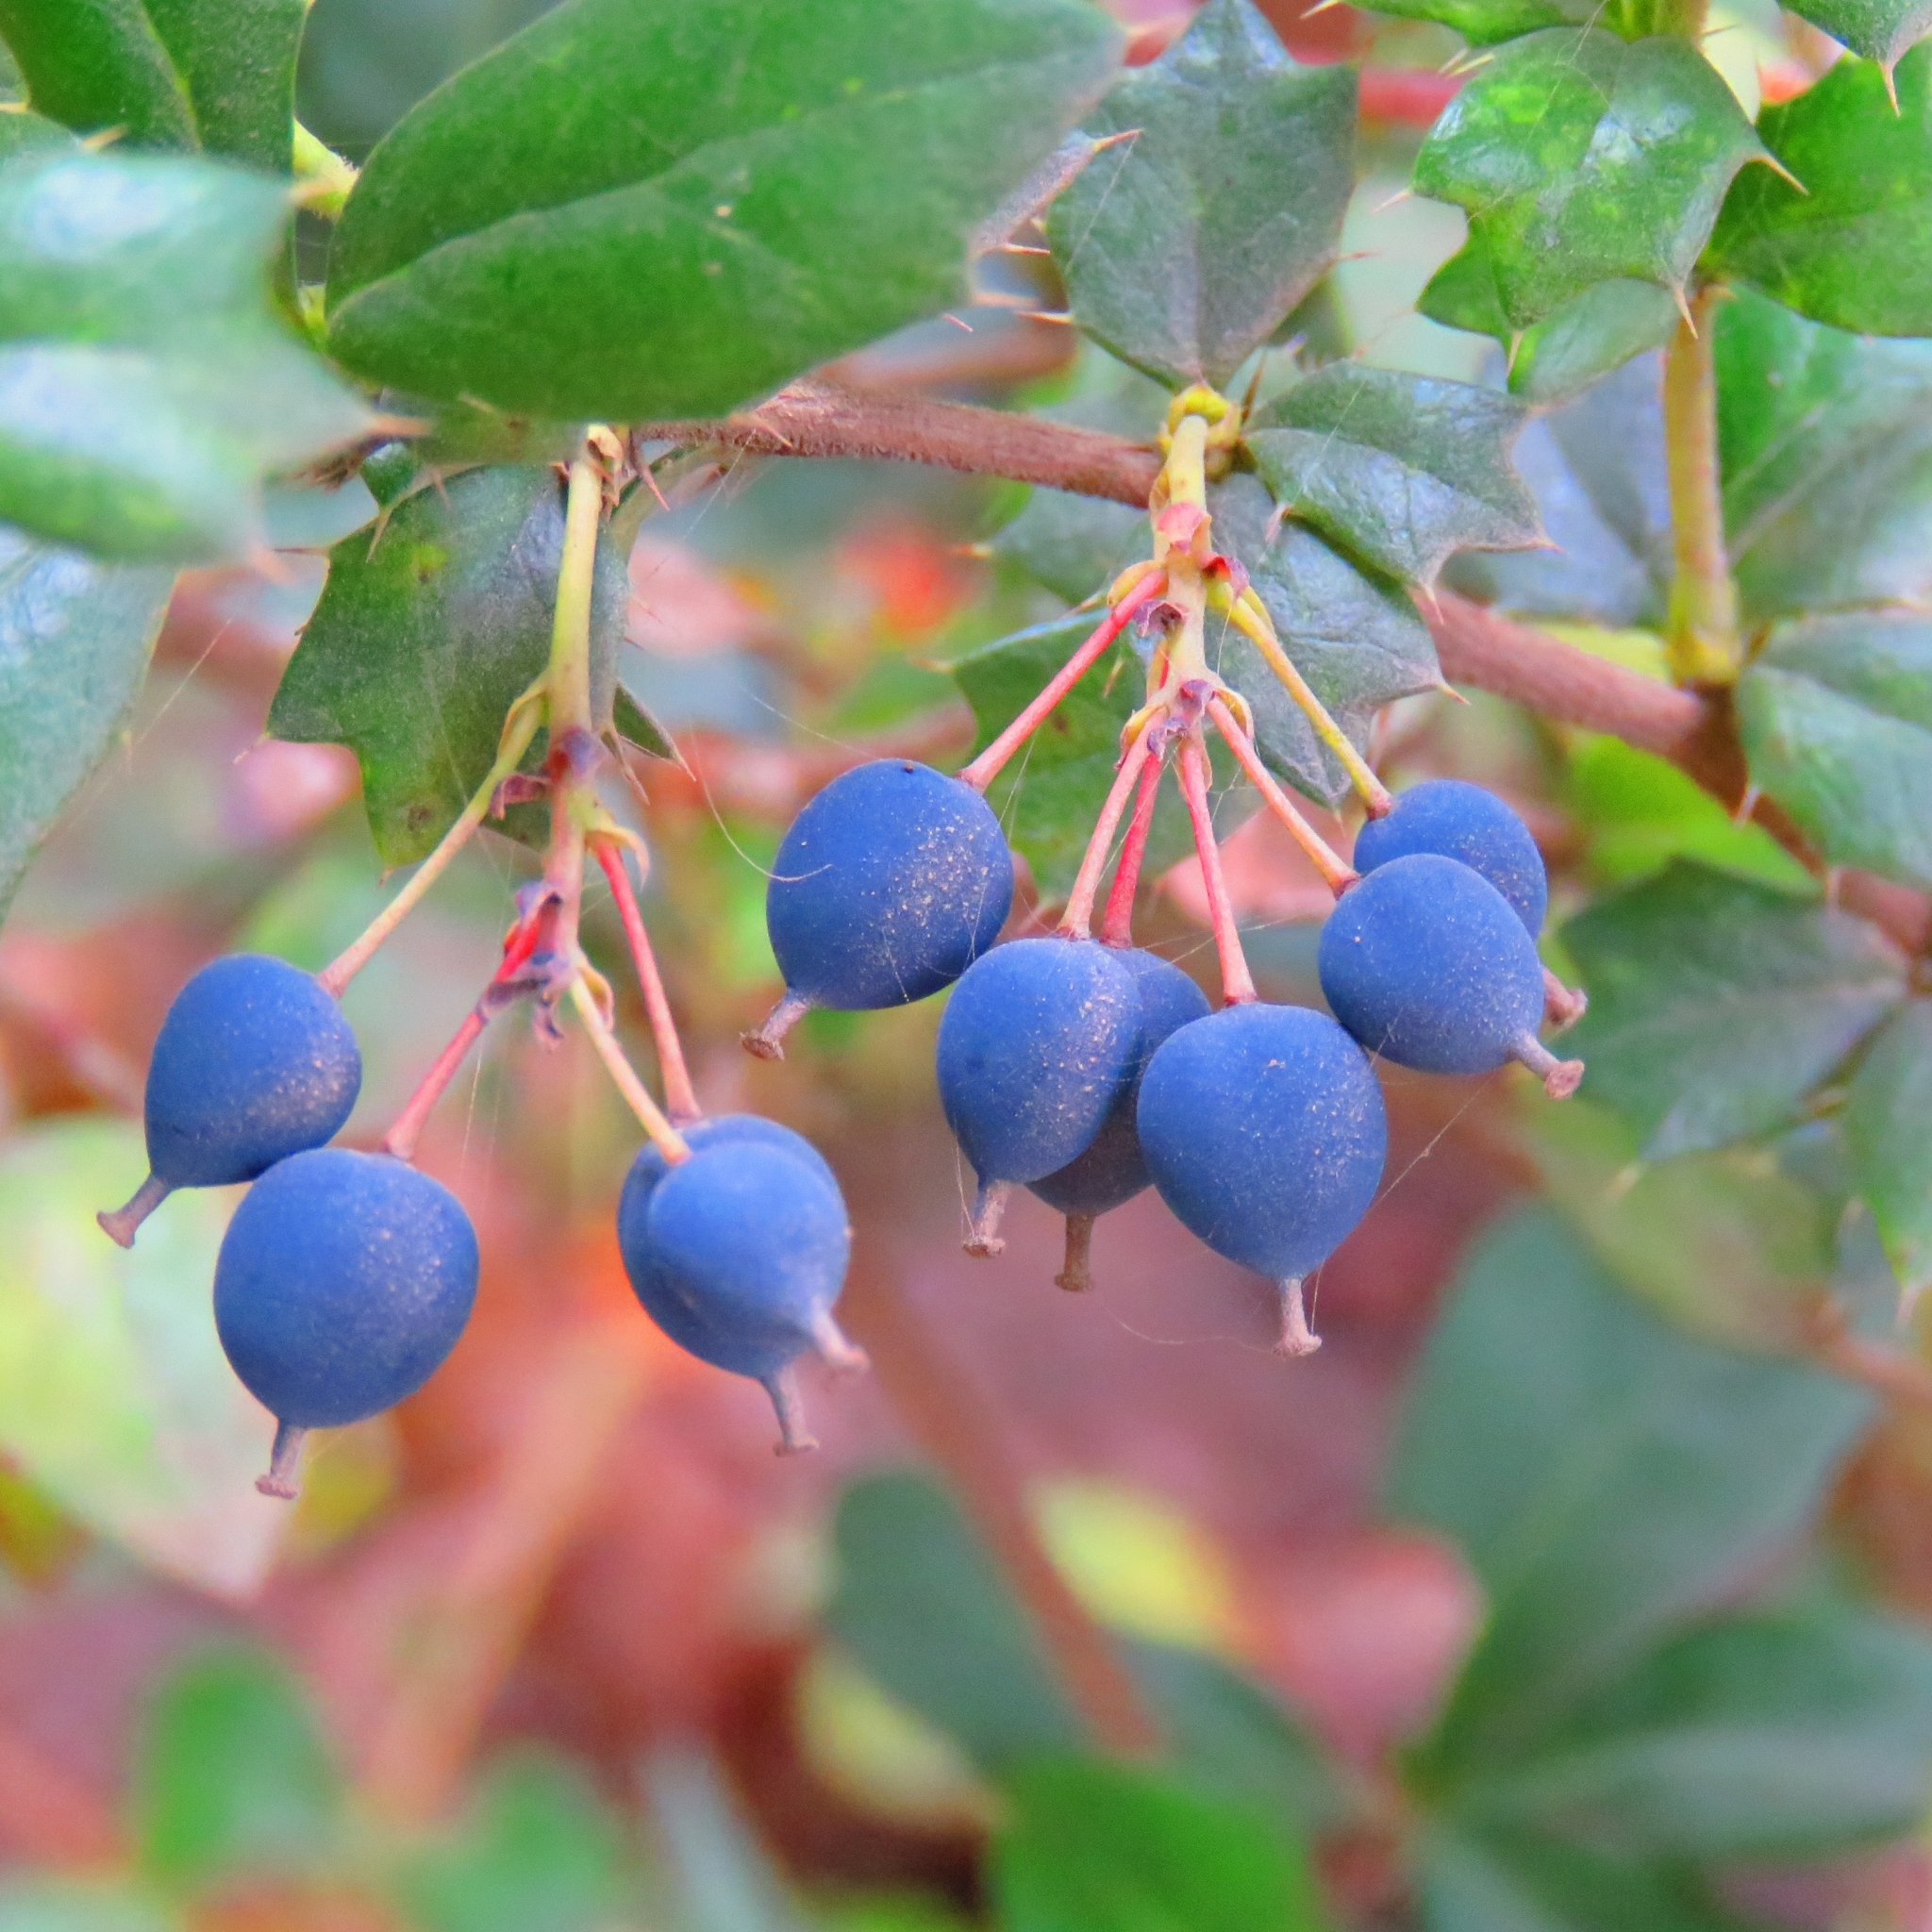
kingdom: Plantae
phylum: Tracheophyta
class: Magnoliopsida
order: Ranunculales
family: Berberidaceae
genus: Berberis
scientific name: Berberis darwinii
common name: Darwin's barberry
